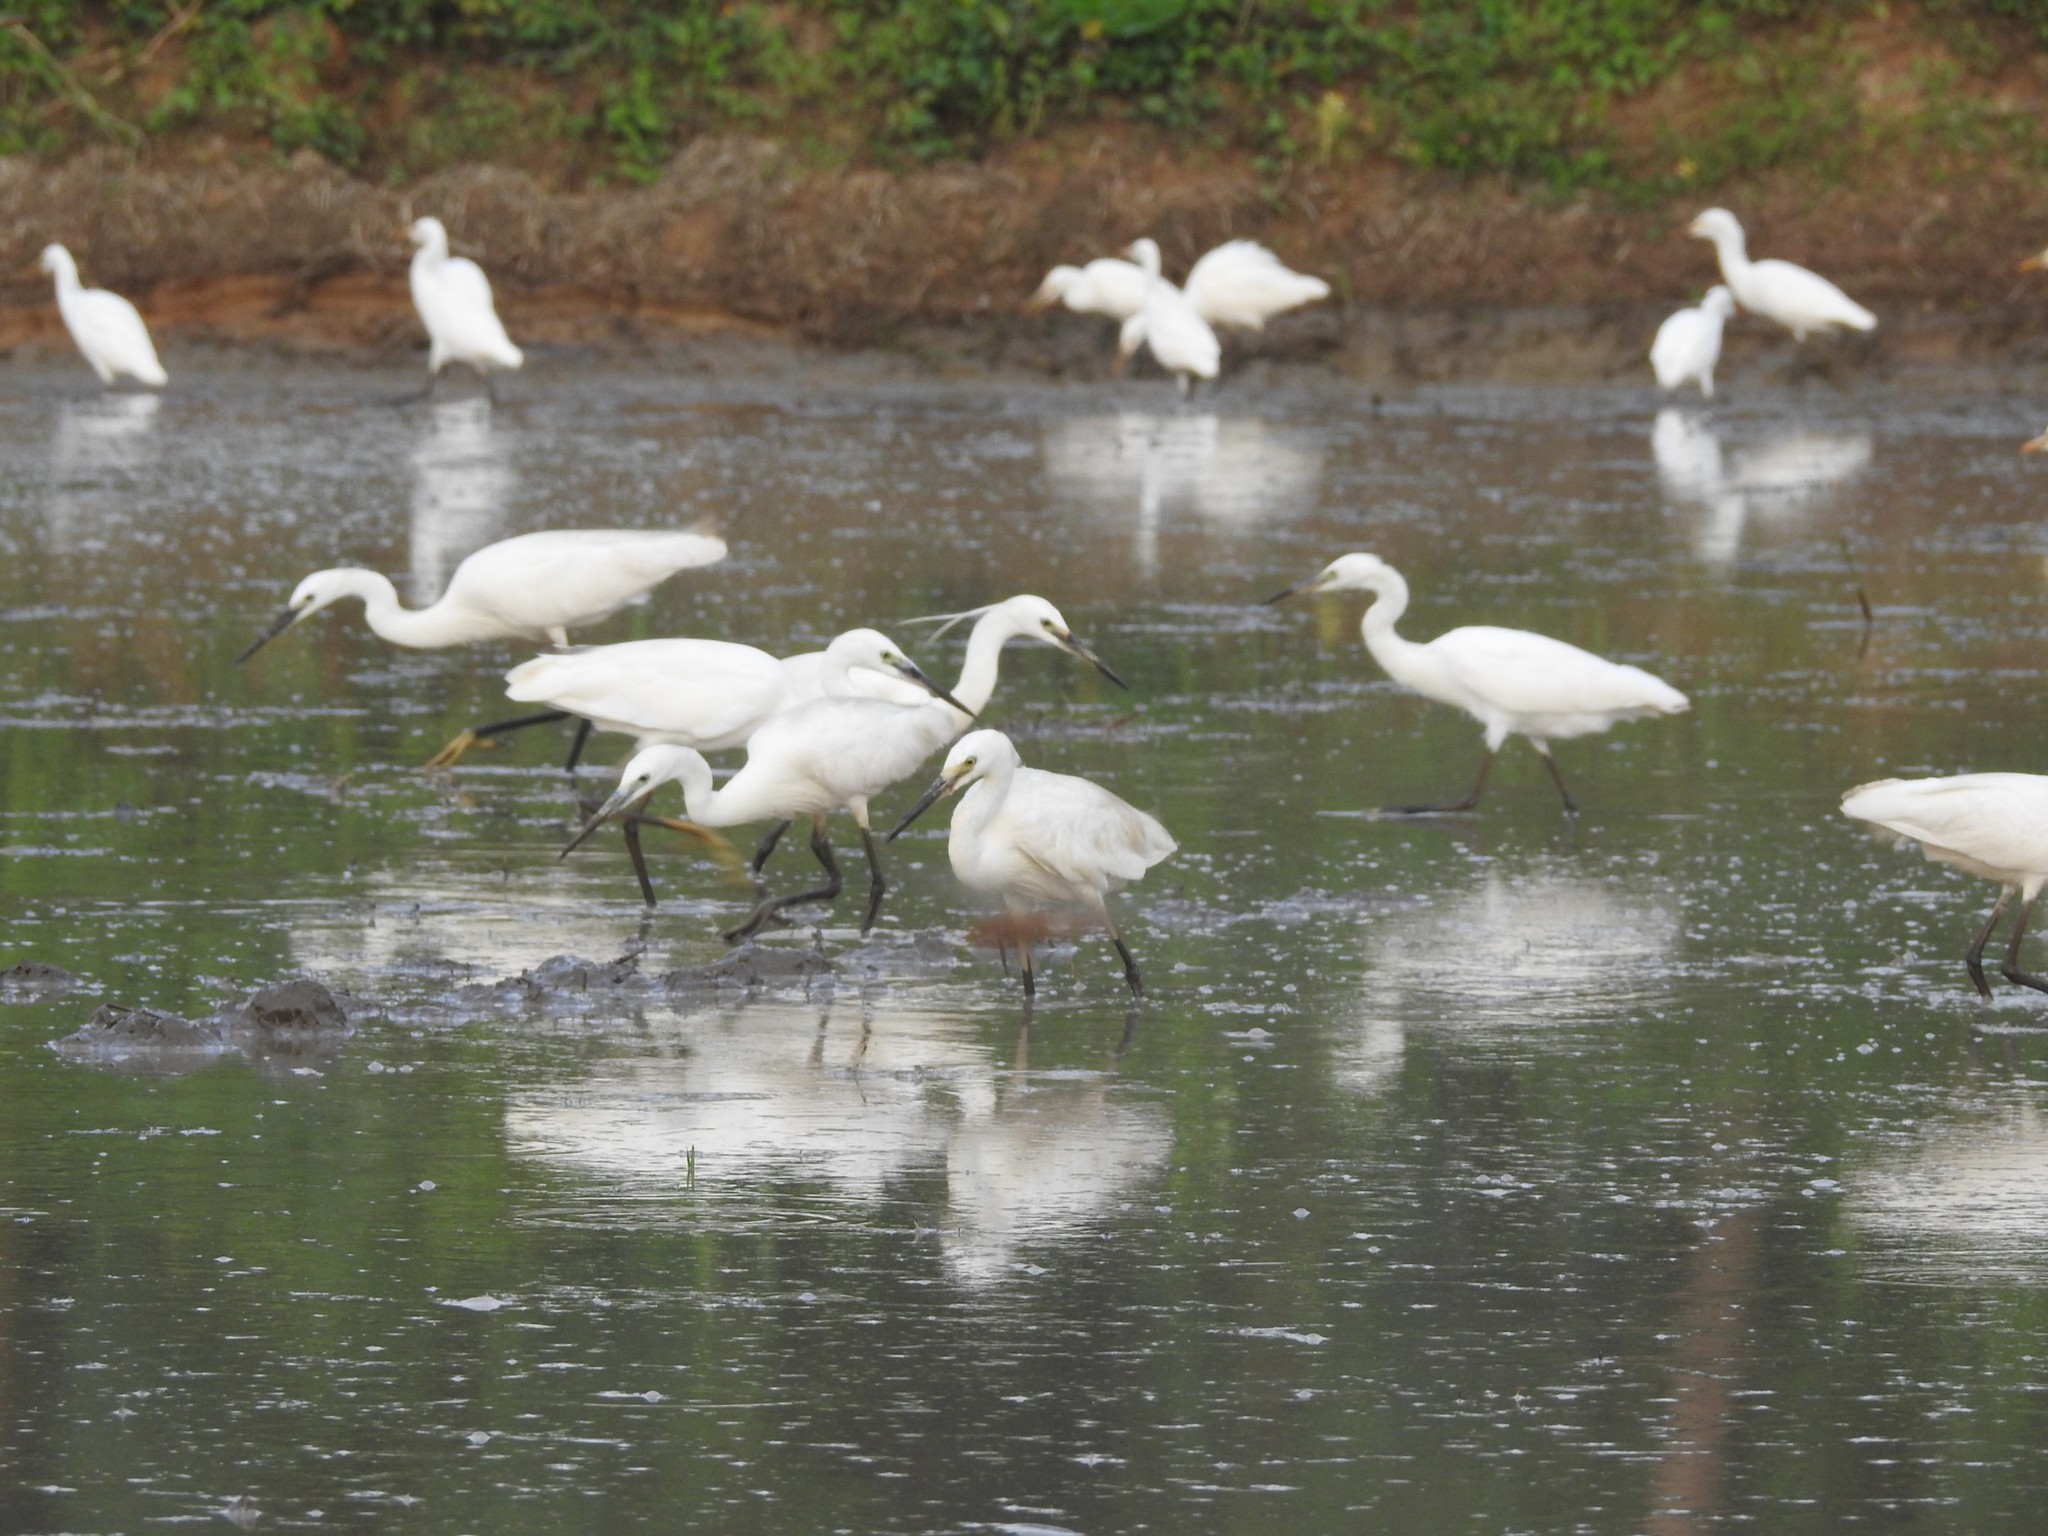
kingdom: Animalia
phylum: Chordata
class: Aves
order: Pelecaniformes
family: Ardeidae
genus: Egretta
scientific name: Egretta garzetta
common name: Little egret
